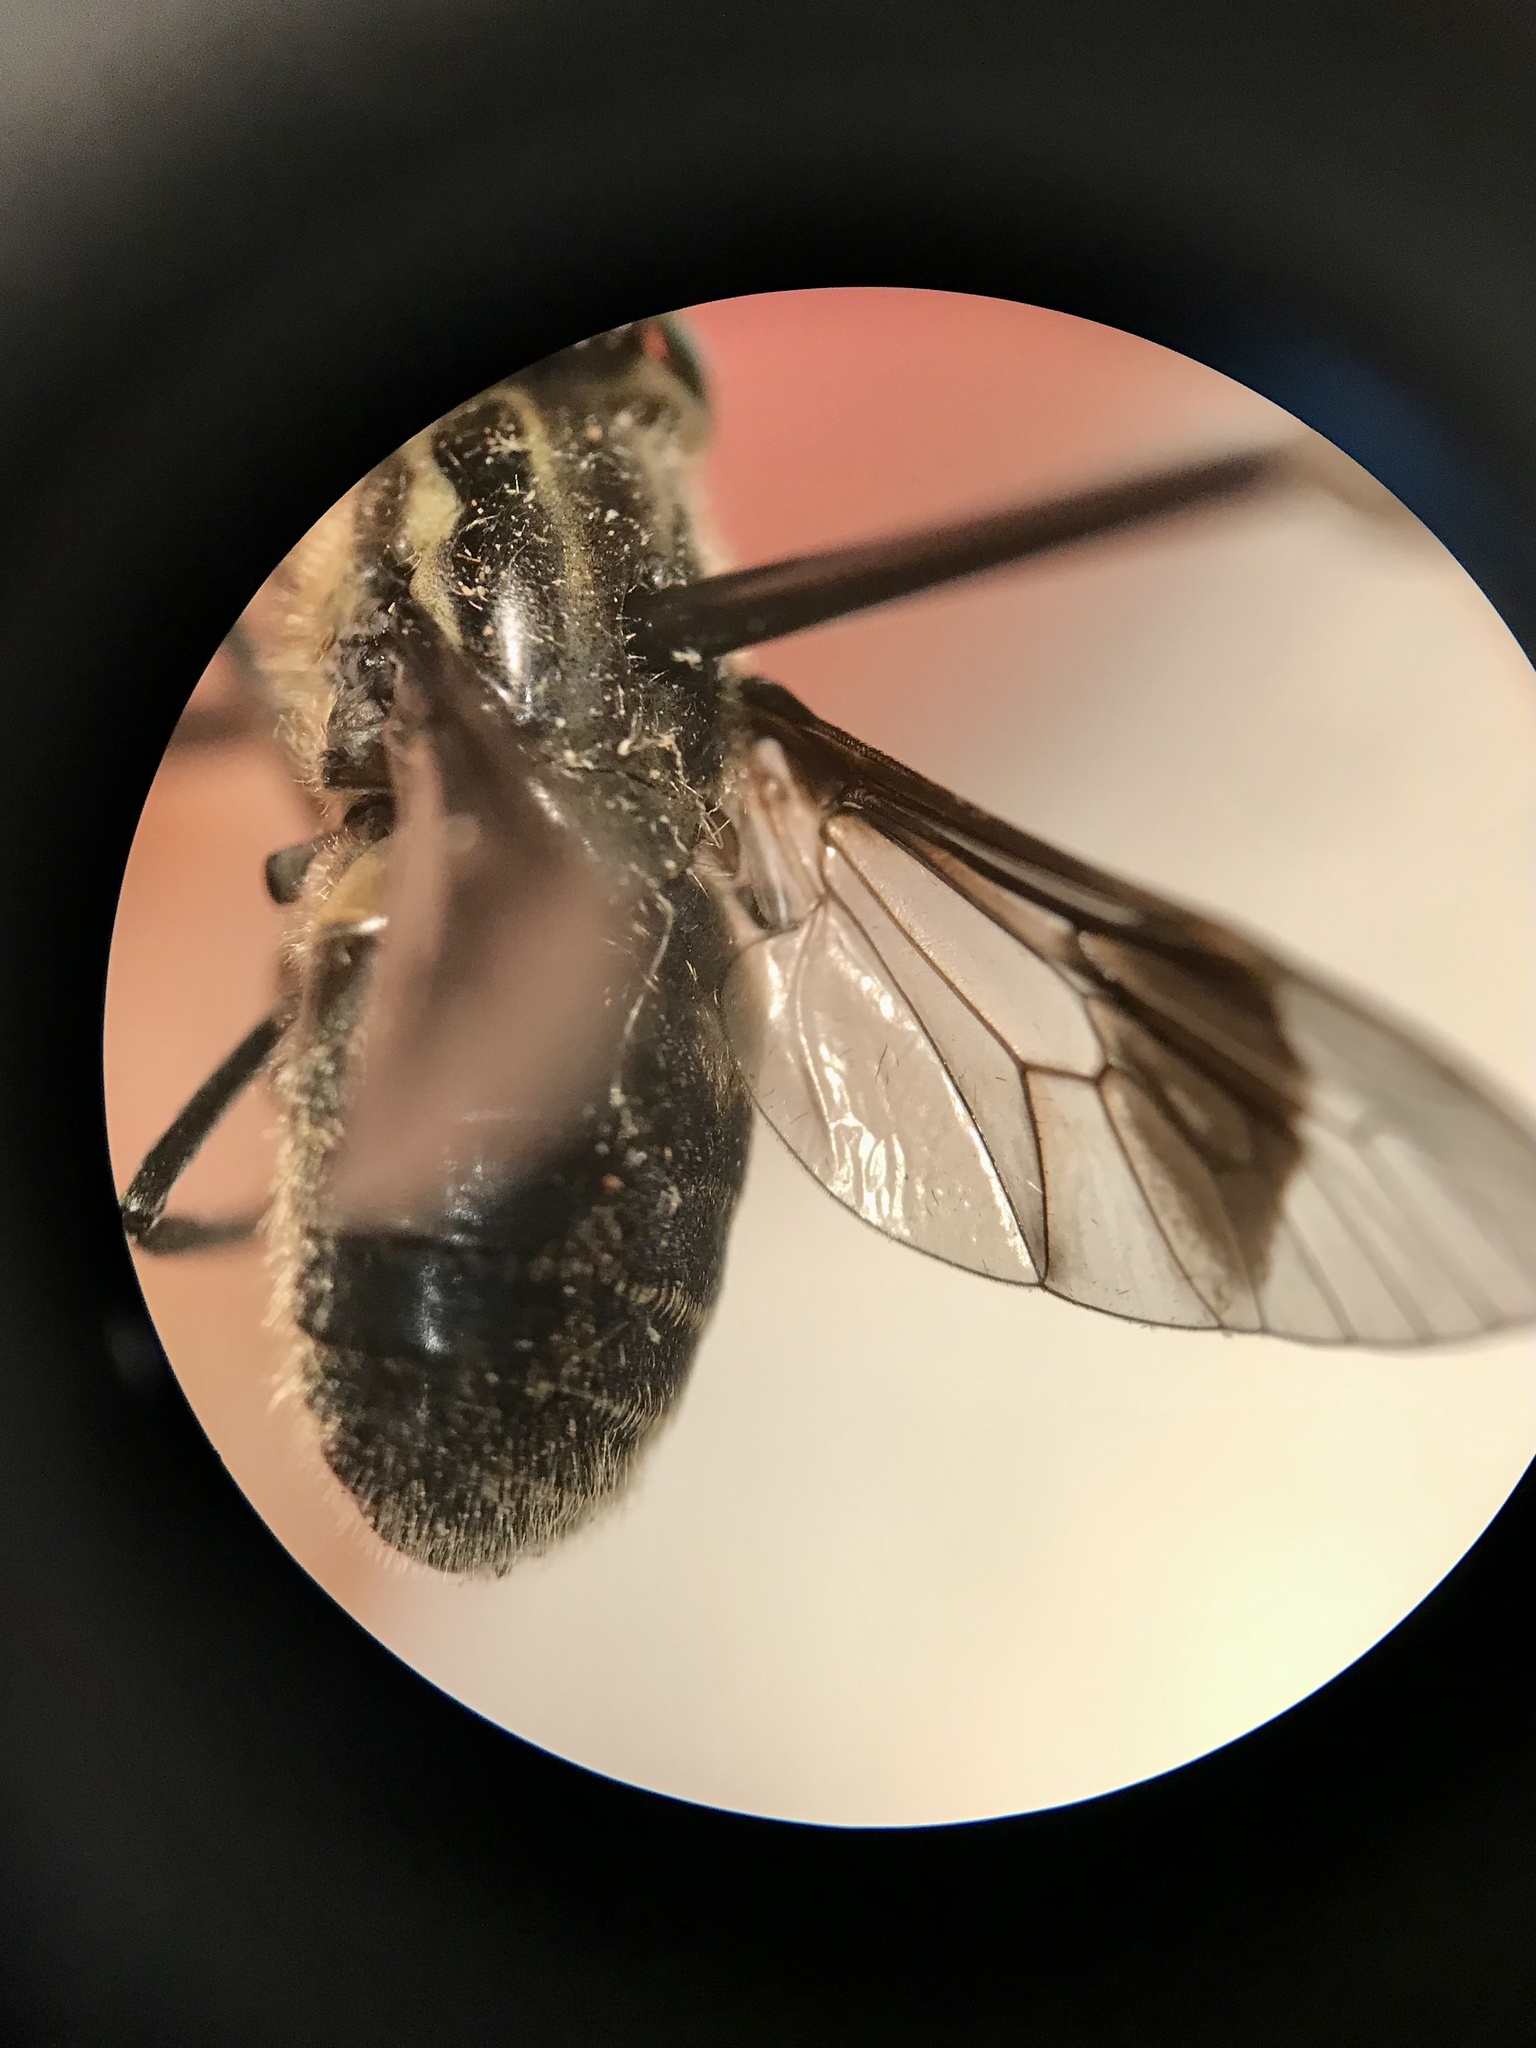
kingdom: Animalia
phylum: Arthropoda
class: Insecta
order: Diptera
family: Tabanidae
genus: Chrysops
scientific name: Chrysops niger
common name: Black deer fly
